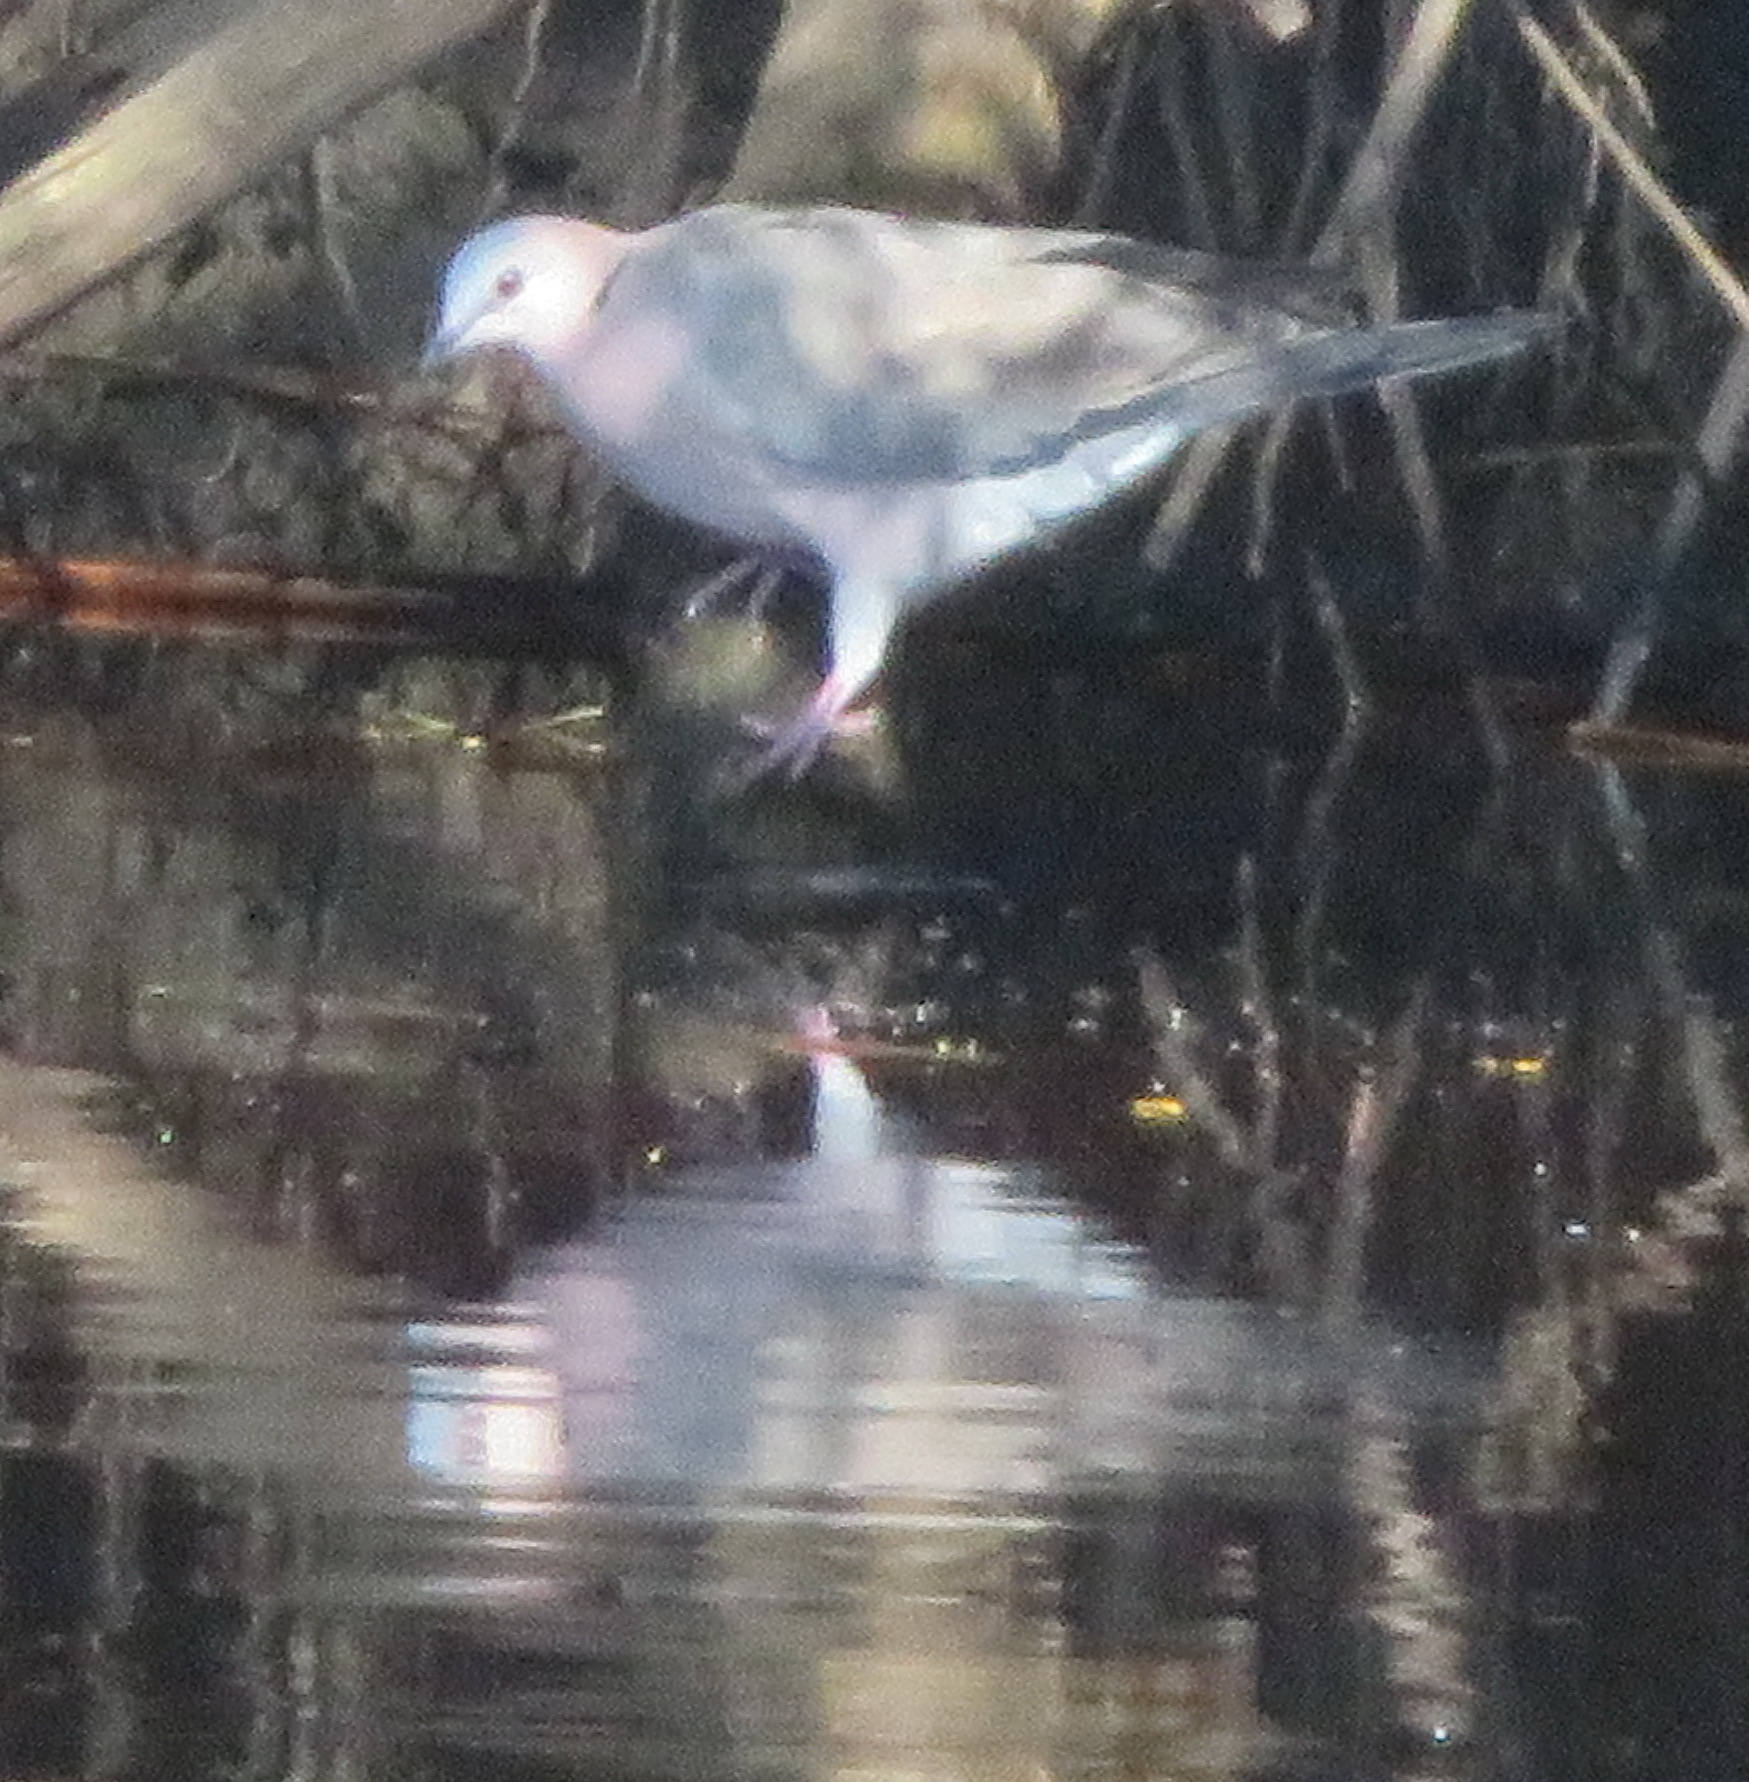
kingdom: Animalia
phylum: Chordata
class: Aves
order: Columbiformes
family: Columbidae
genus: Streptopelia
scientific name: Streptopelia semitorquata
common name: Red-eyed dove
